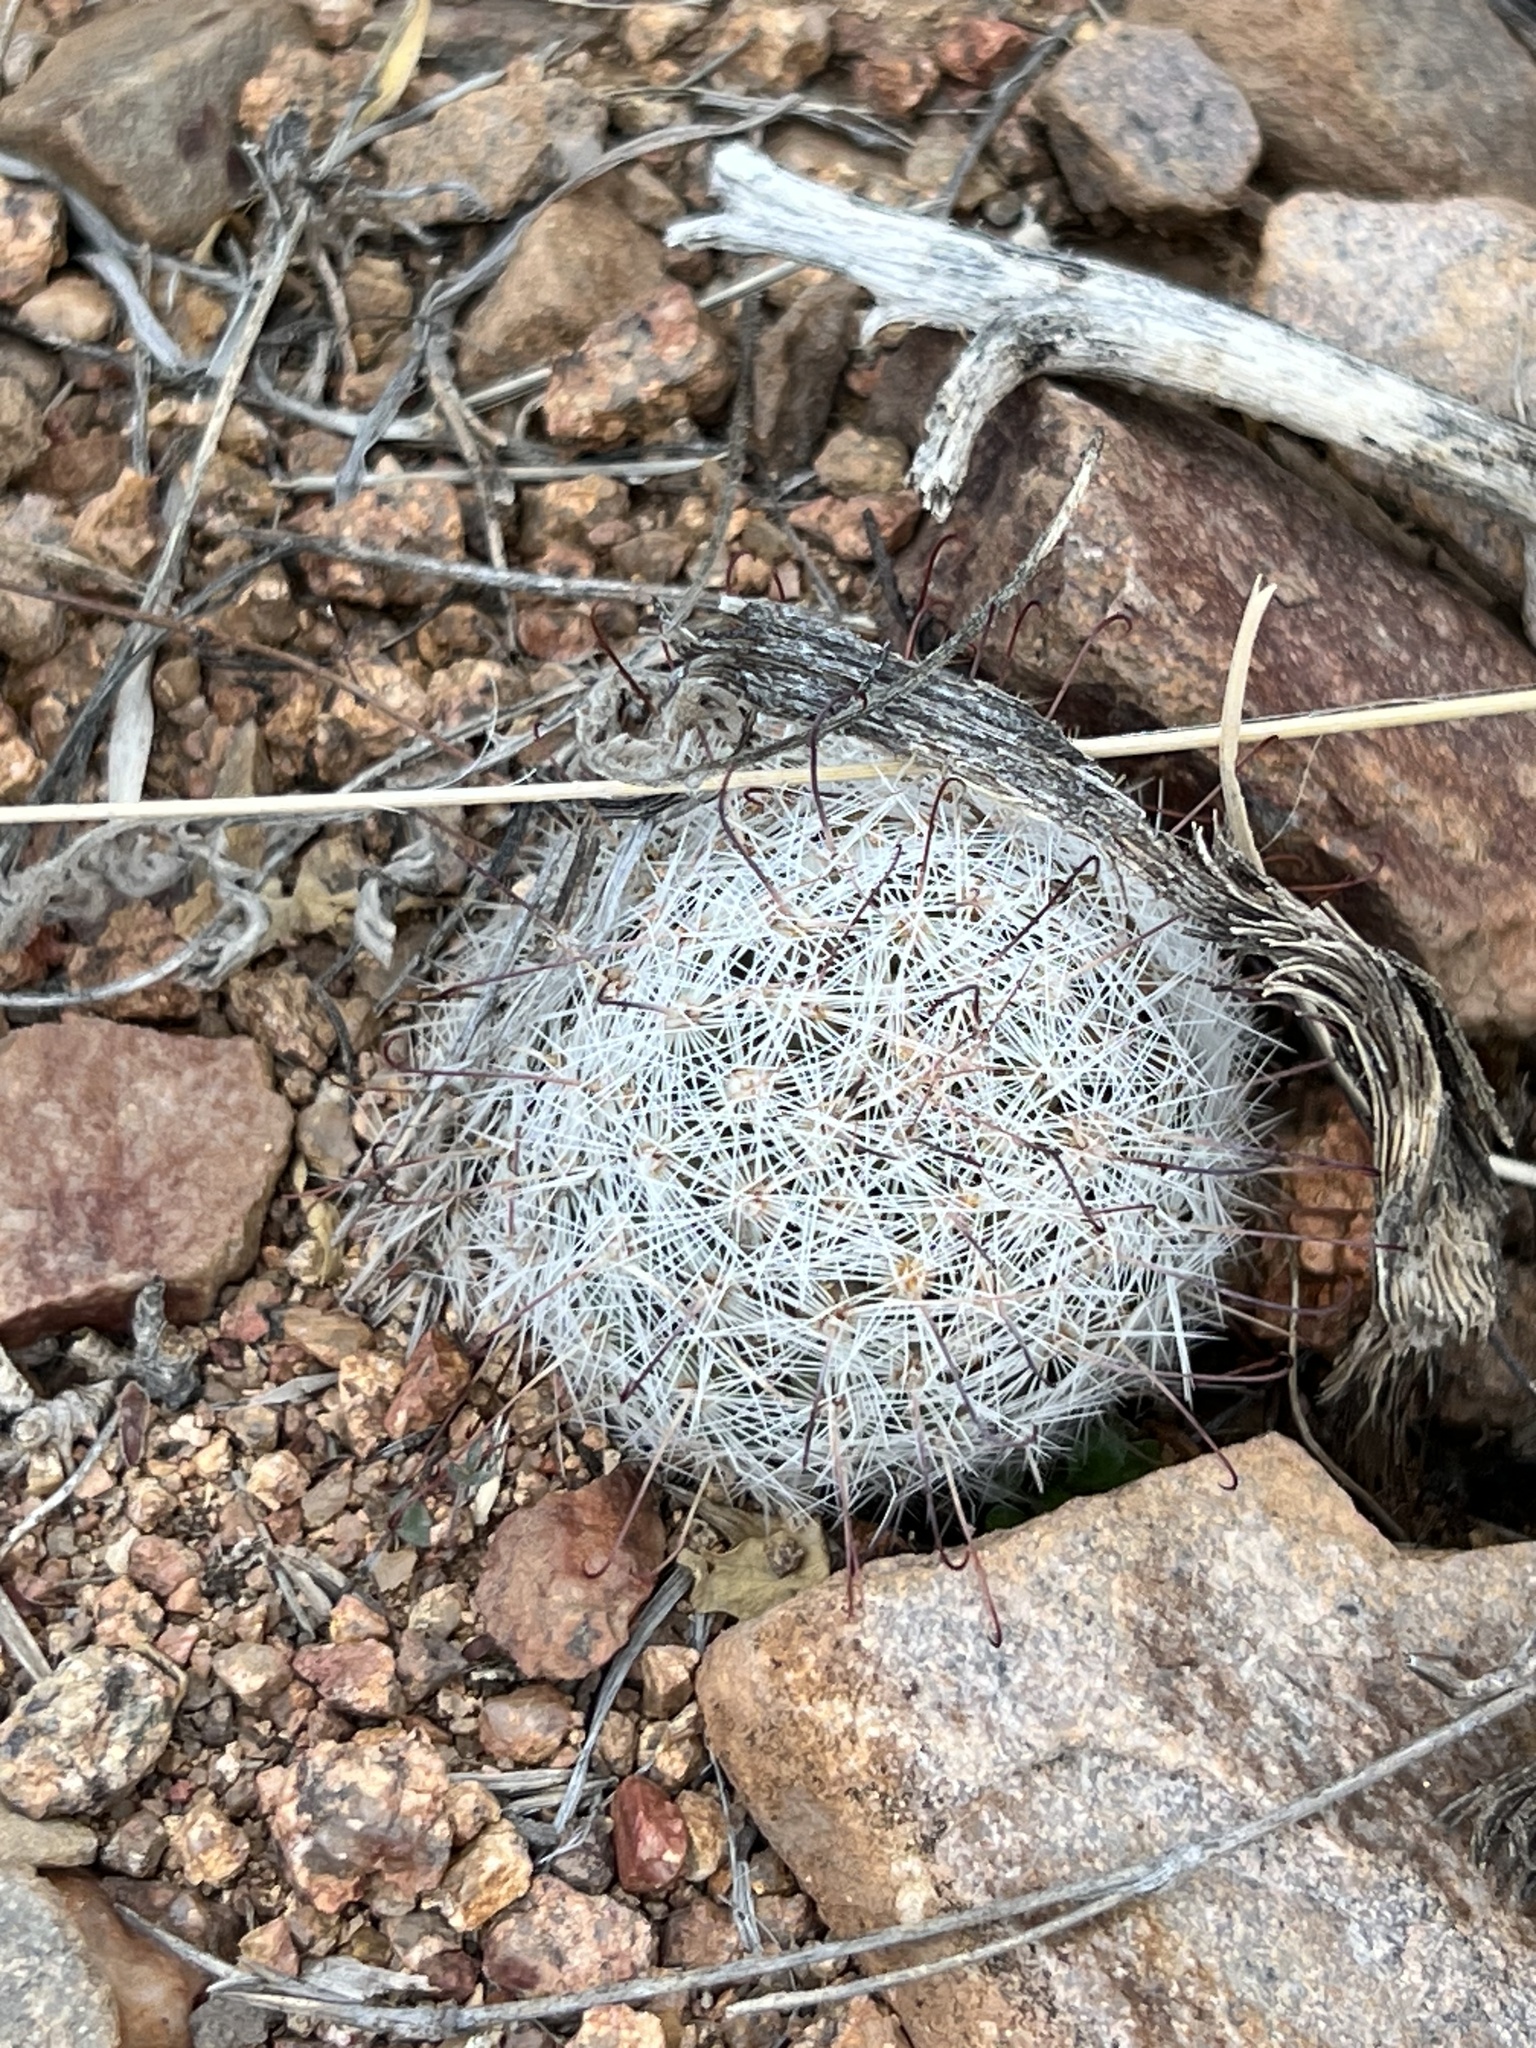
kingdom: Plantae
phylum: Tracheophyta
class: Magnoliopsida
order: Caryophyllales
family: Cactaceae
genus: Cochemiea
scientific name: Cochemiea grahamii
